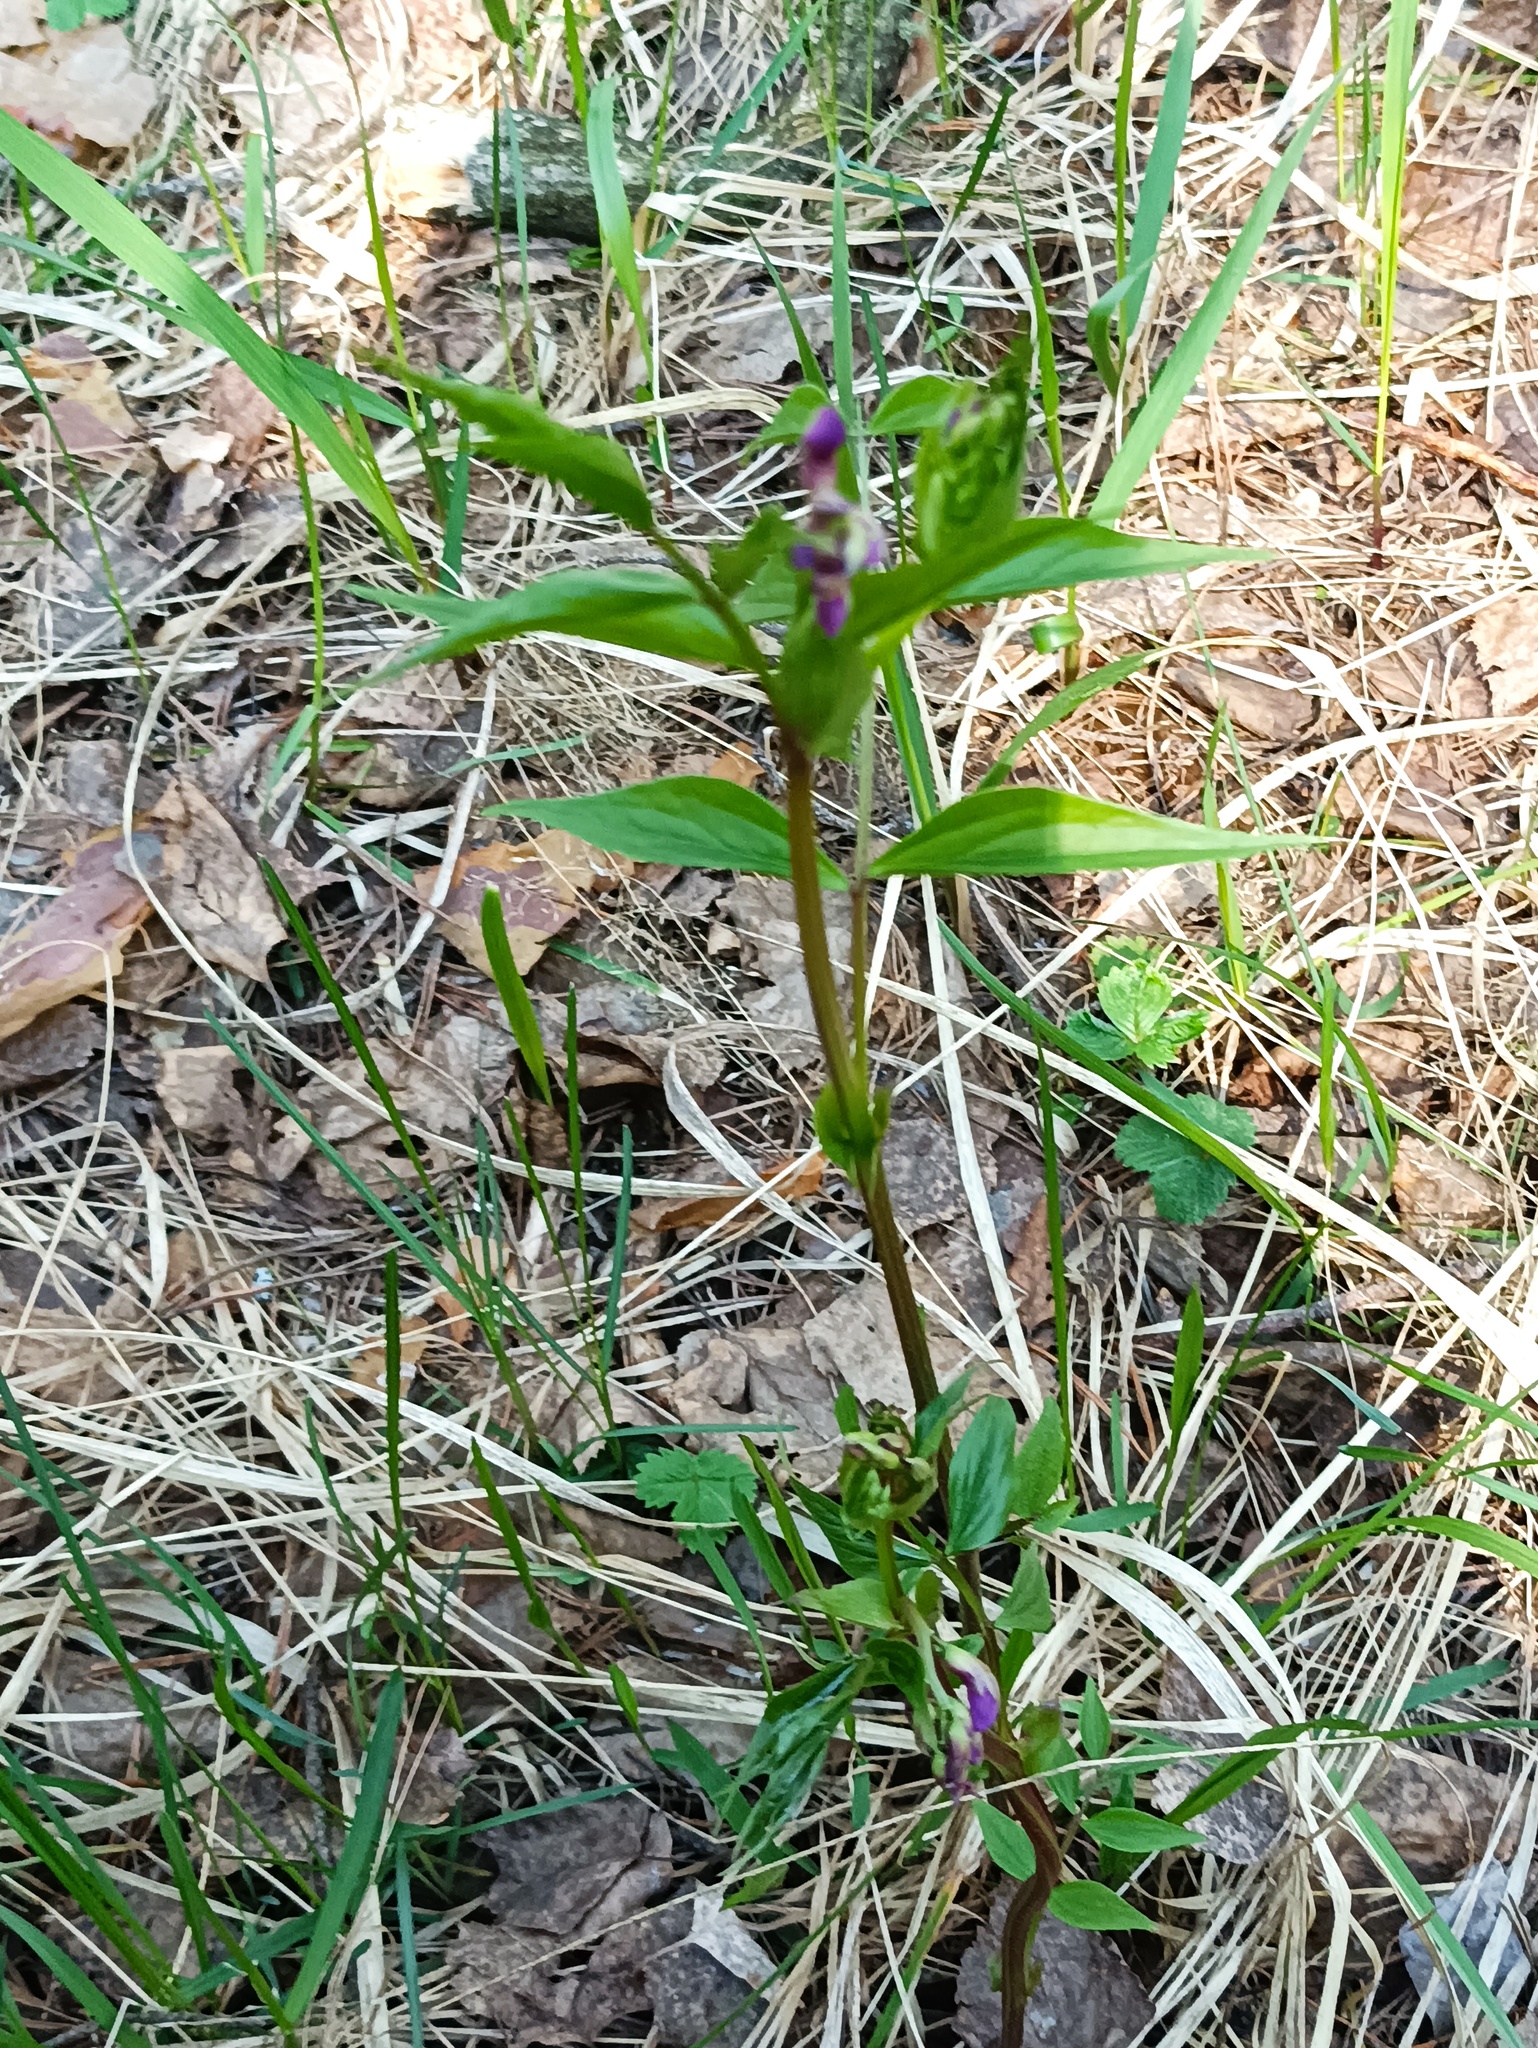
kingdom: Plantae
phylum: Tracheophyta
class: Magnoliopsida
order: Fabales
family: Fabaceae
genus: Lathyrus
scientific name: Lathyrus vernus
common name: Spring pea
